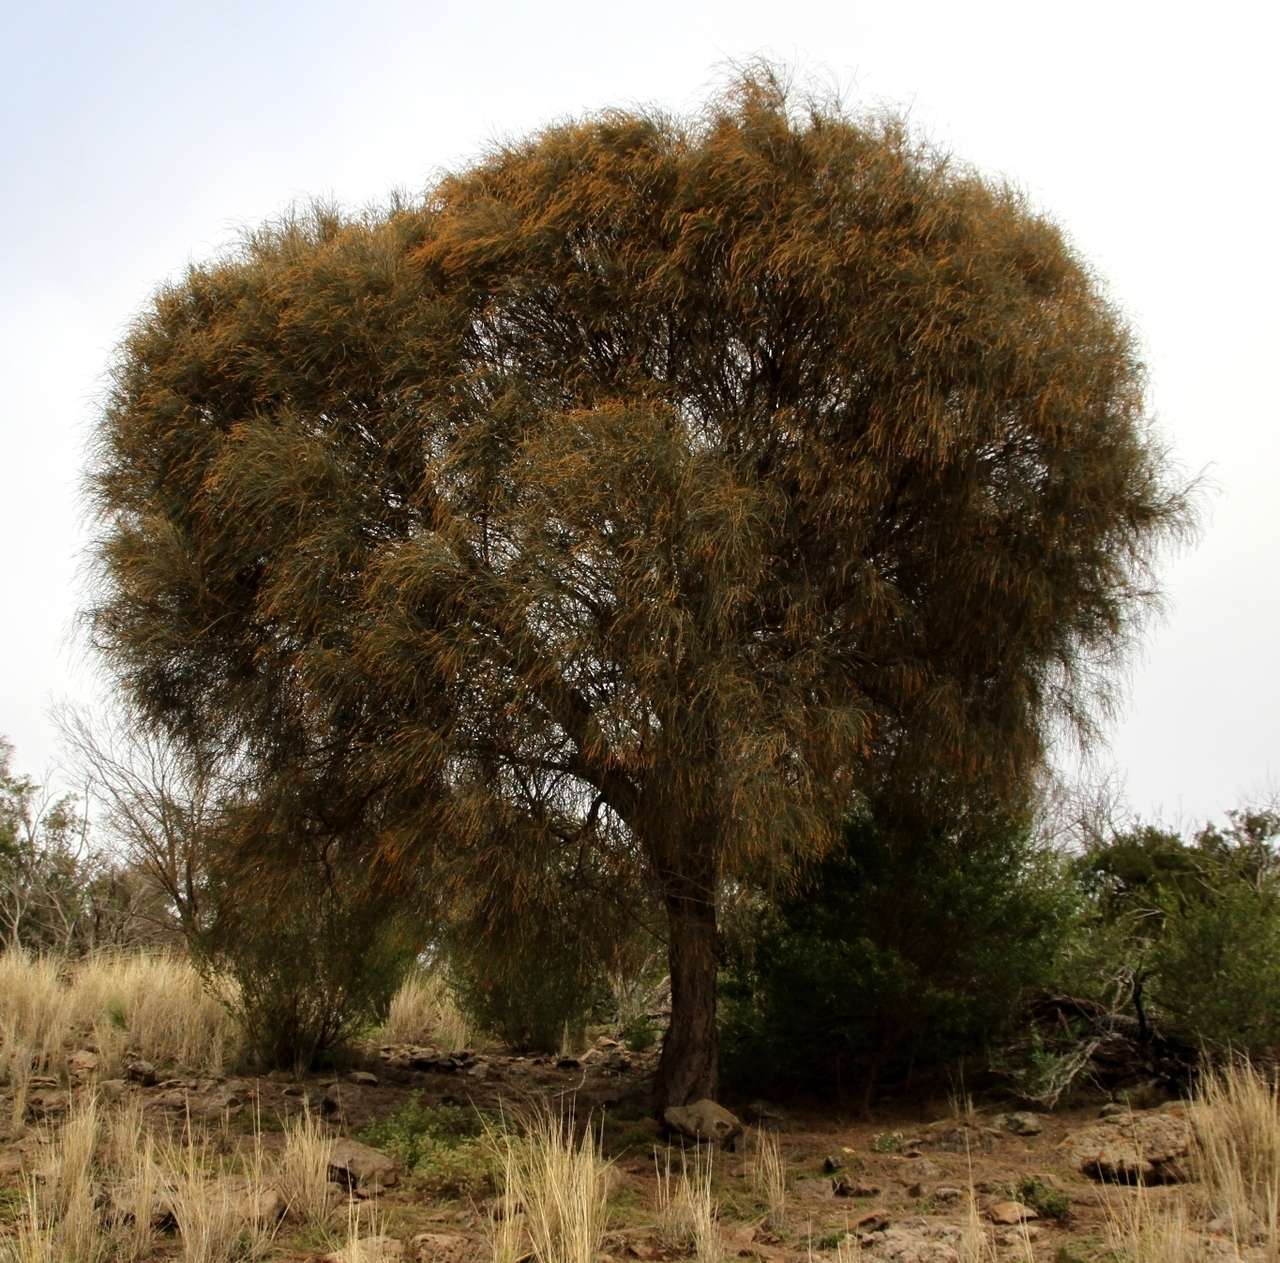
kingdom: Plantae
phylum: Tracheophyta
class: Magnoliopsida
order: Fagales
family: Casuarinaceae
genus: Allocasuarina
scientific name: Allocasuarina verticillata
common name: Drooping she-oak
